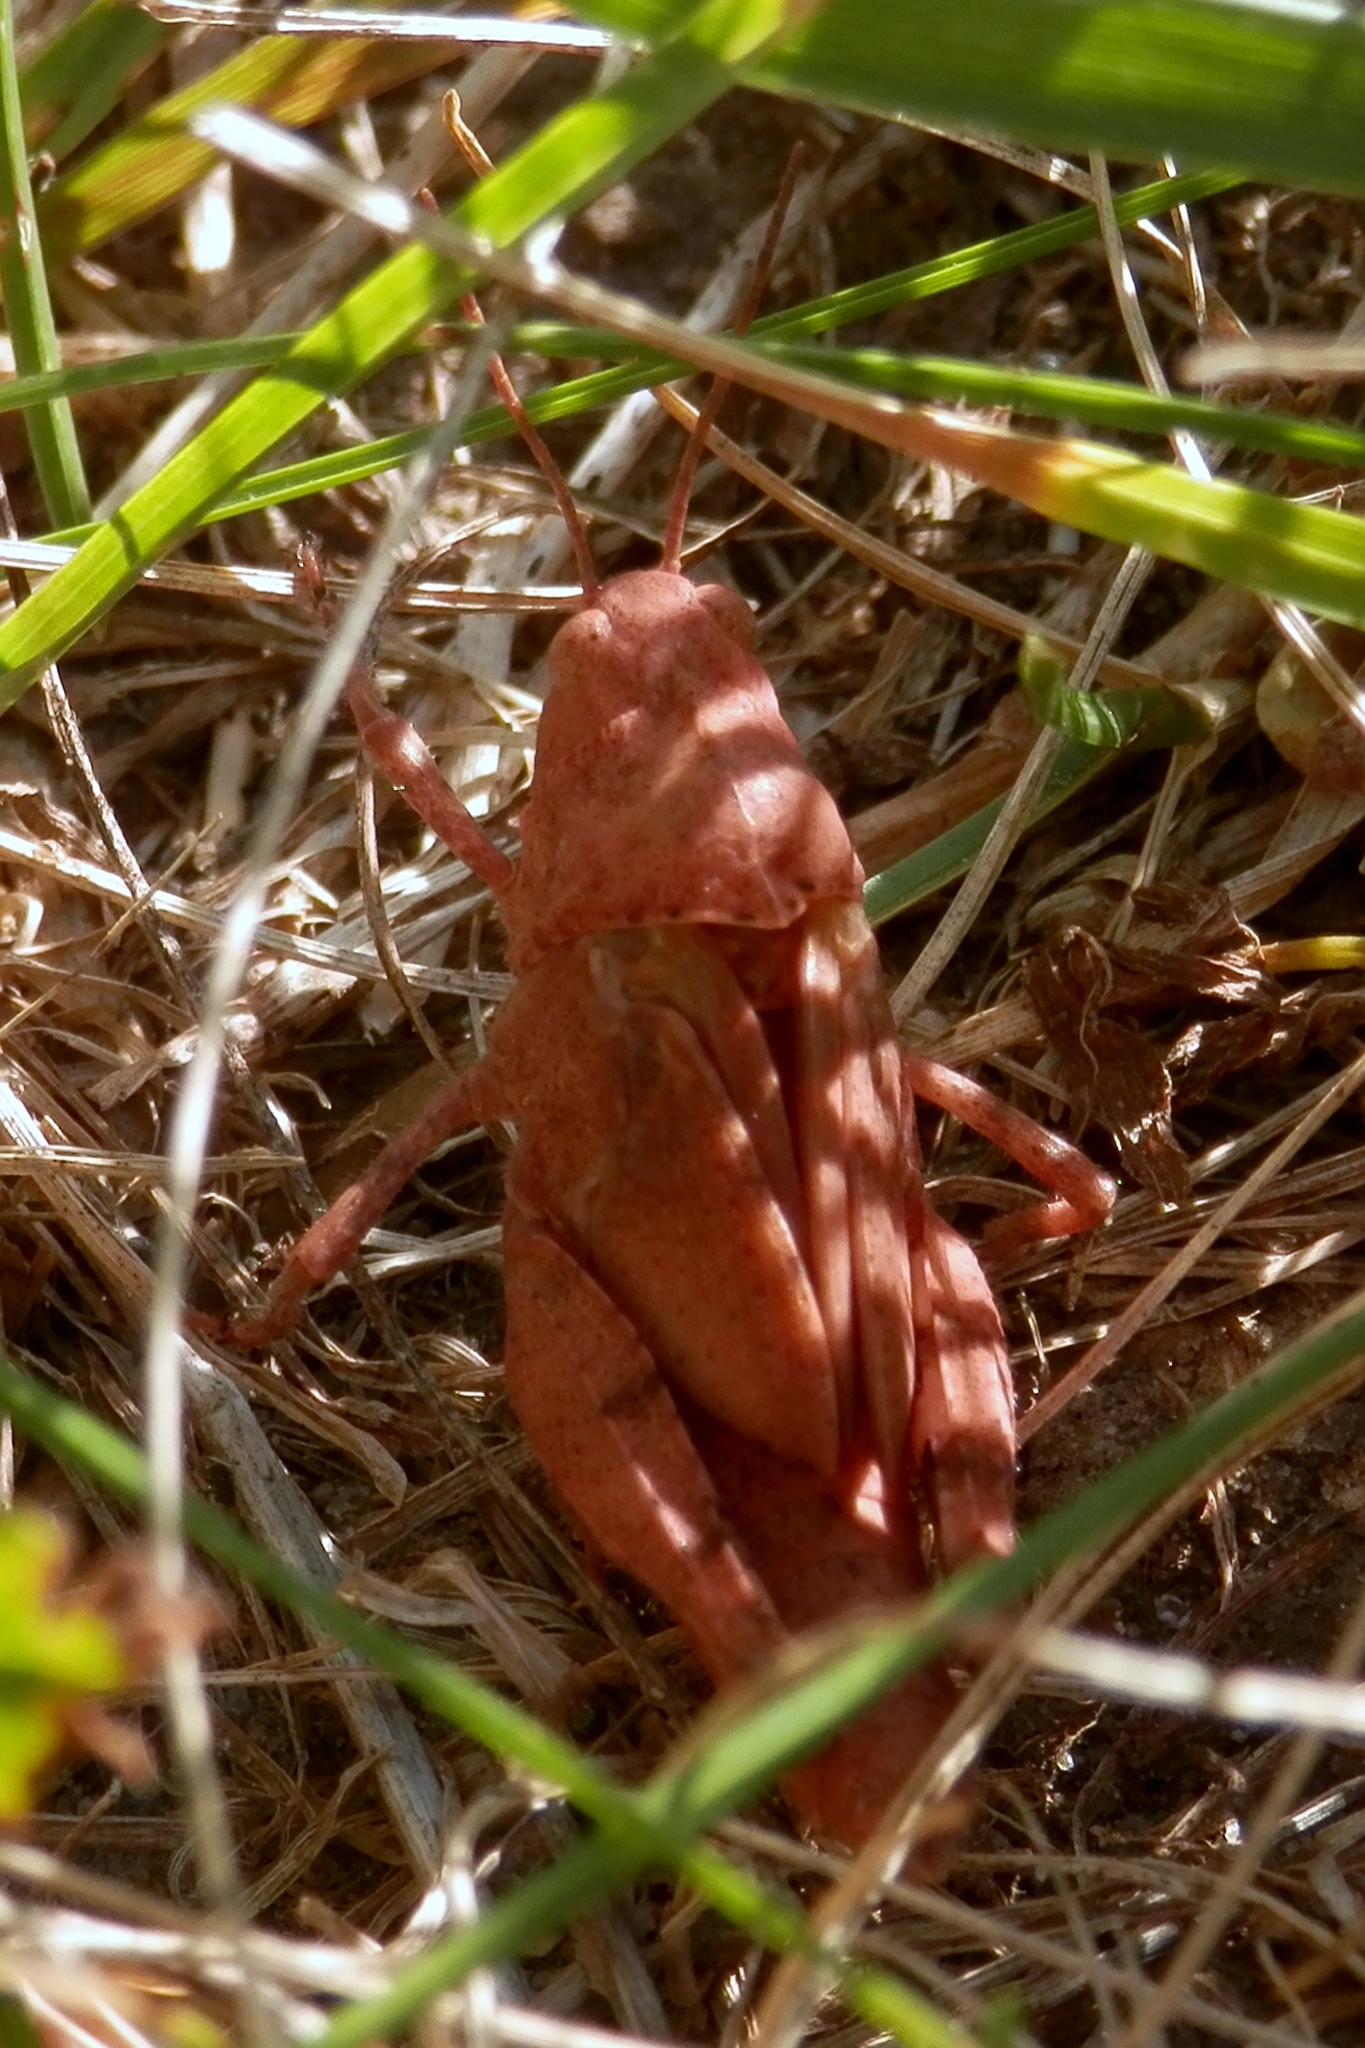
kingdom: Animalia
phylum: Arthropoda
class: Insecta
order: Orthoptera
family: Acrididae
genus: Dissosteira
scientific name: Dissosteira carolina
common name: Carolina grasshopper
